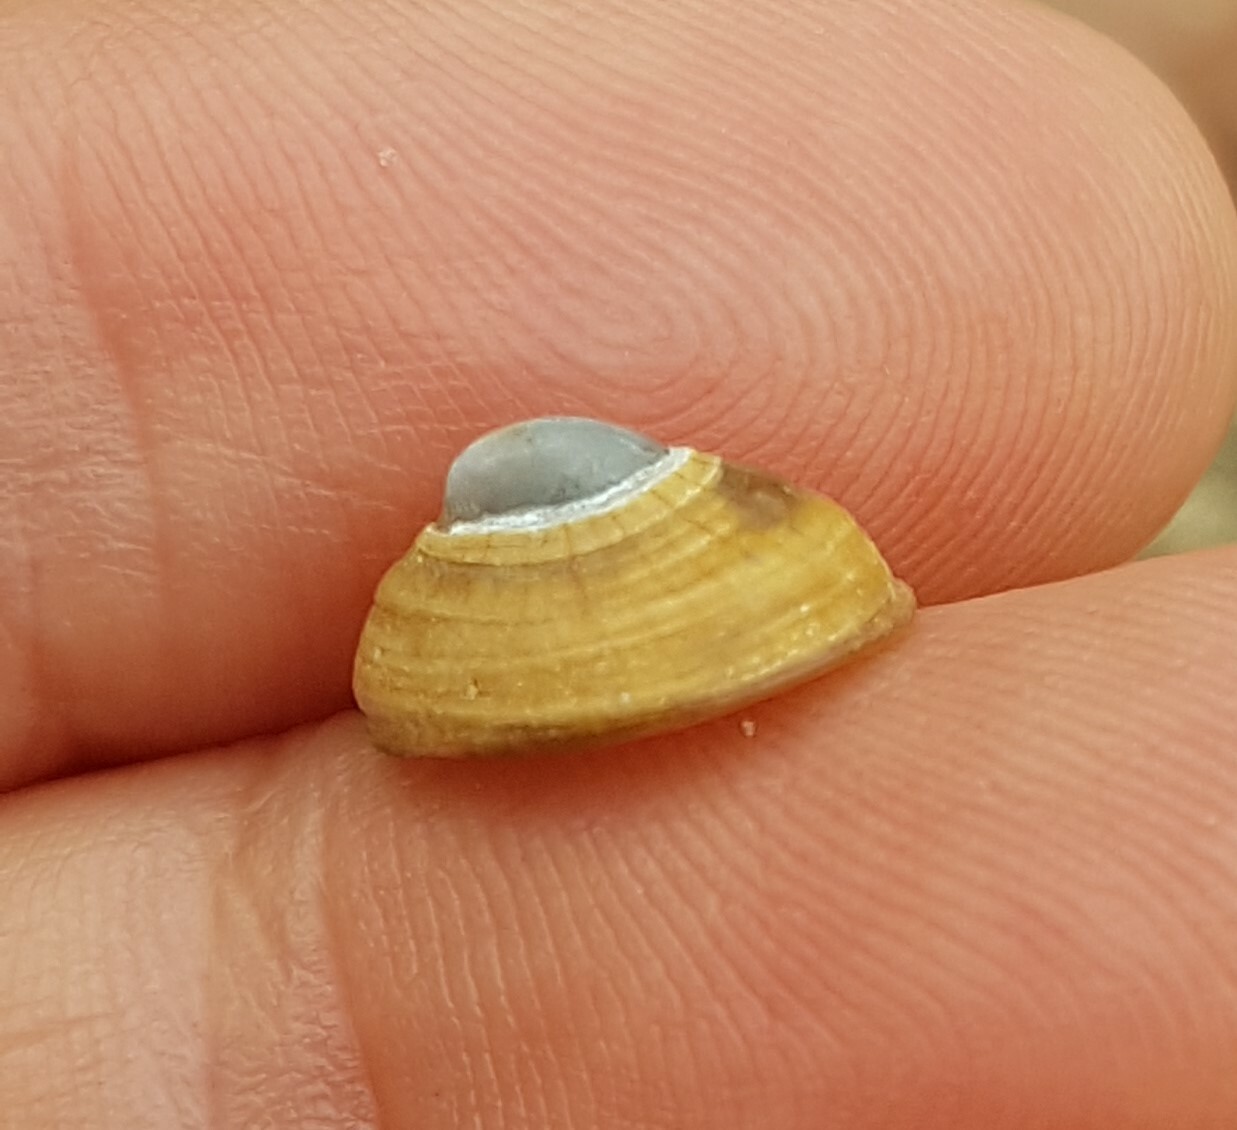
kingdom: Animalia
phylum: Mollusca
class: Gastropoda
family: Patellidae
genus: Patella
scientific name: Patella pellucida
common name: Blue-rayed limpet
